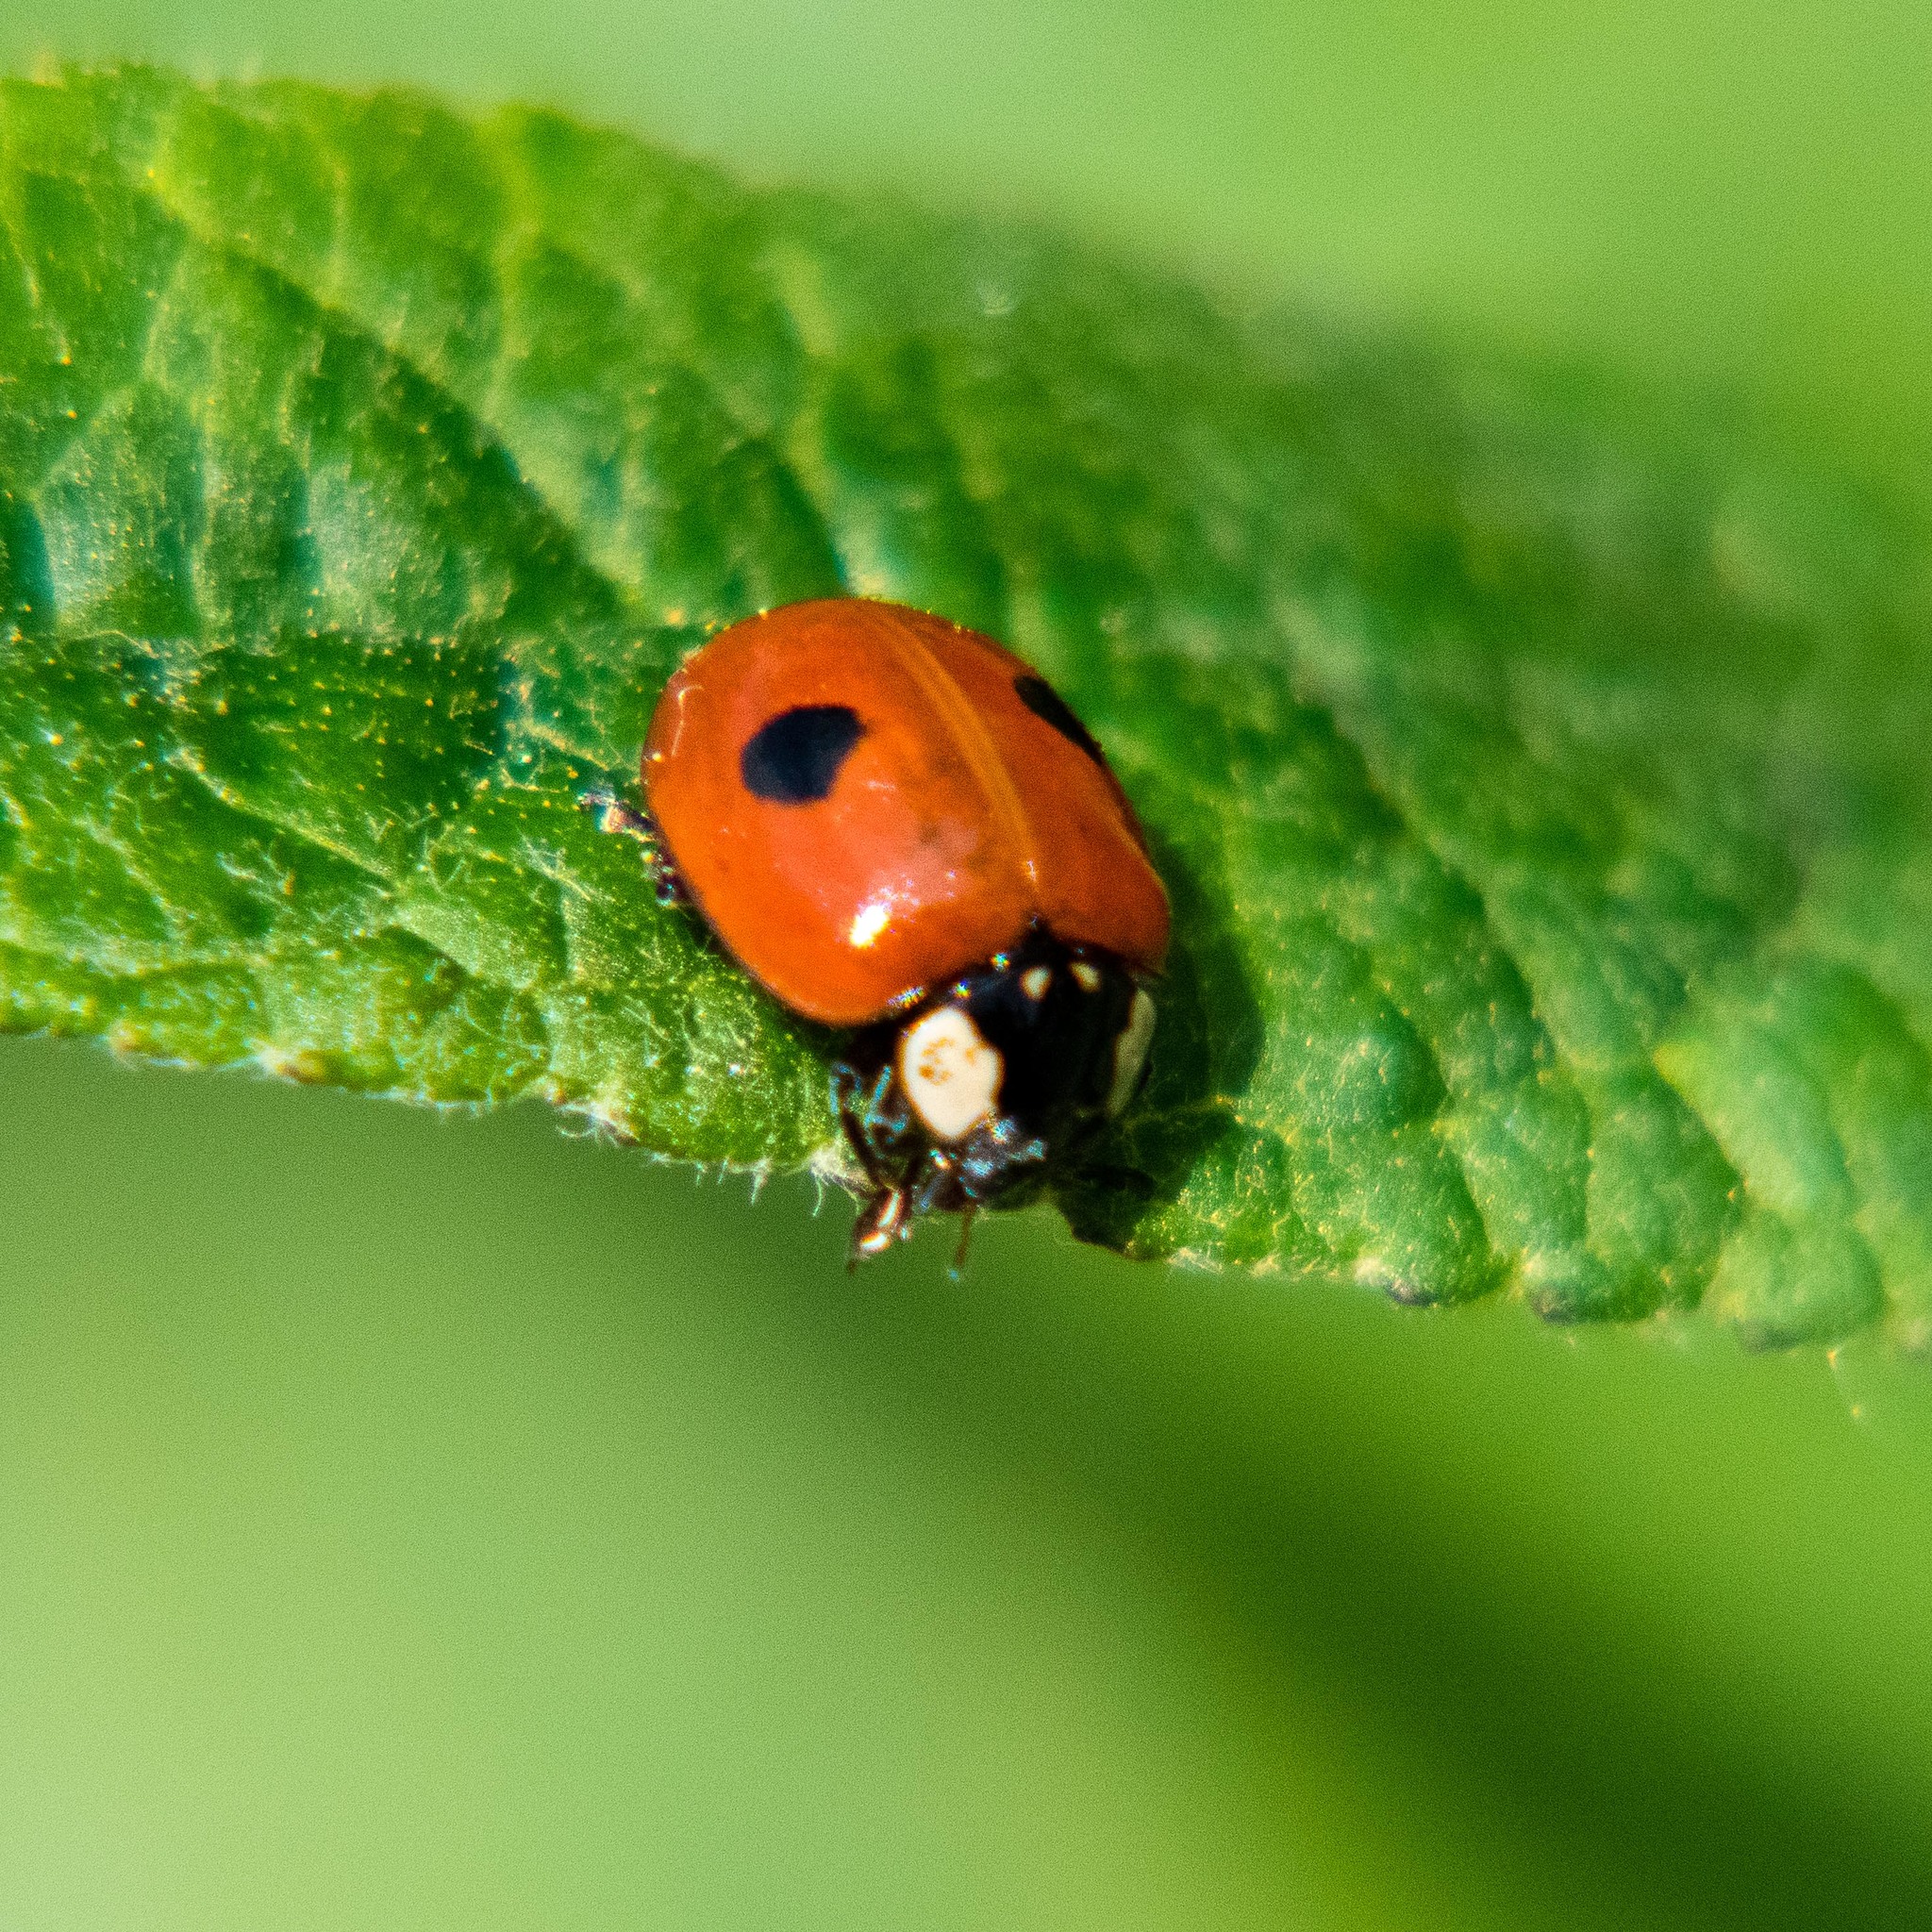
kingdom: Animalia
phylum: Arthropoda
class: Insecta
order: Coleoptera
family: Coccinellidae
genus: Adalia
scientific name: Adalia bipunctata
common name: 2-spot ladybird
